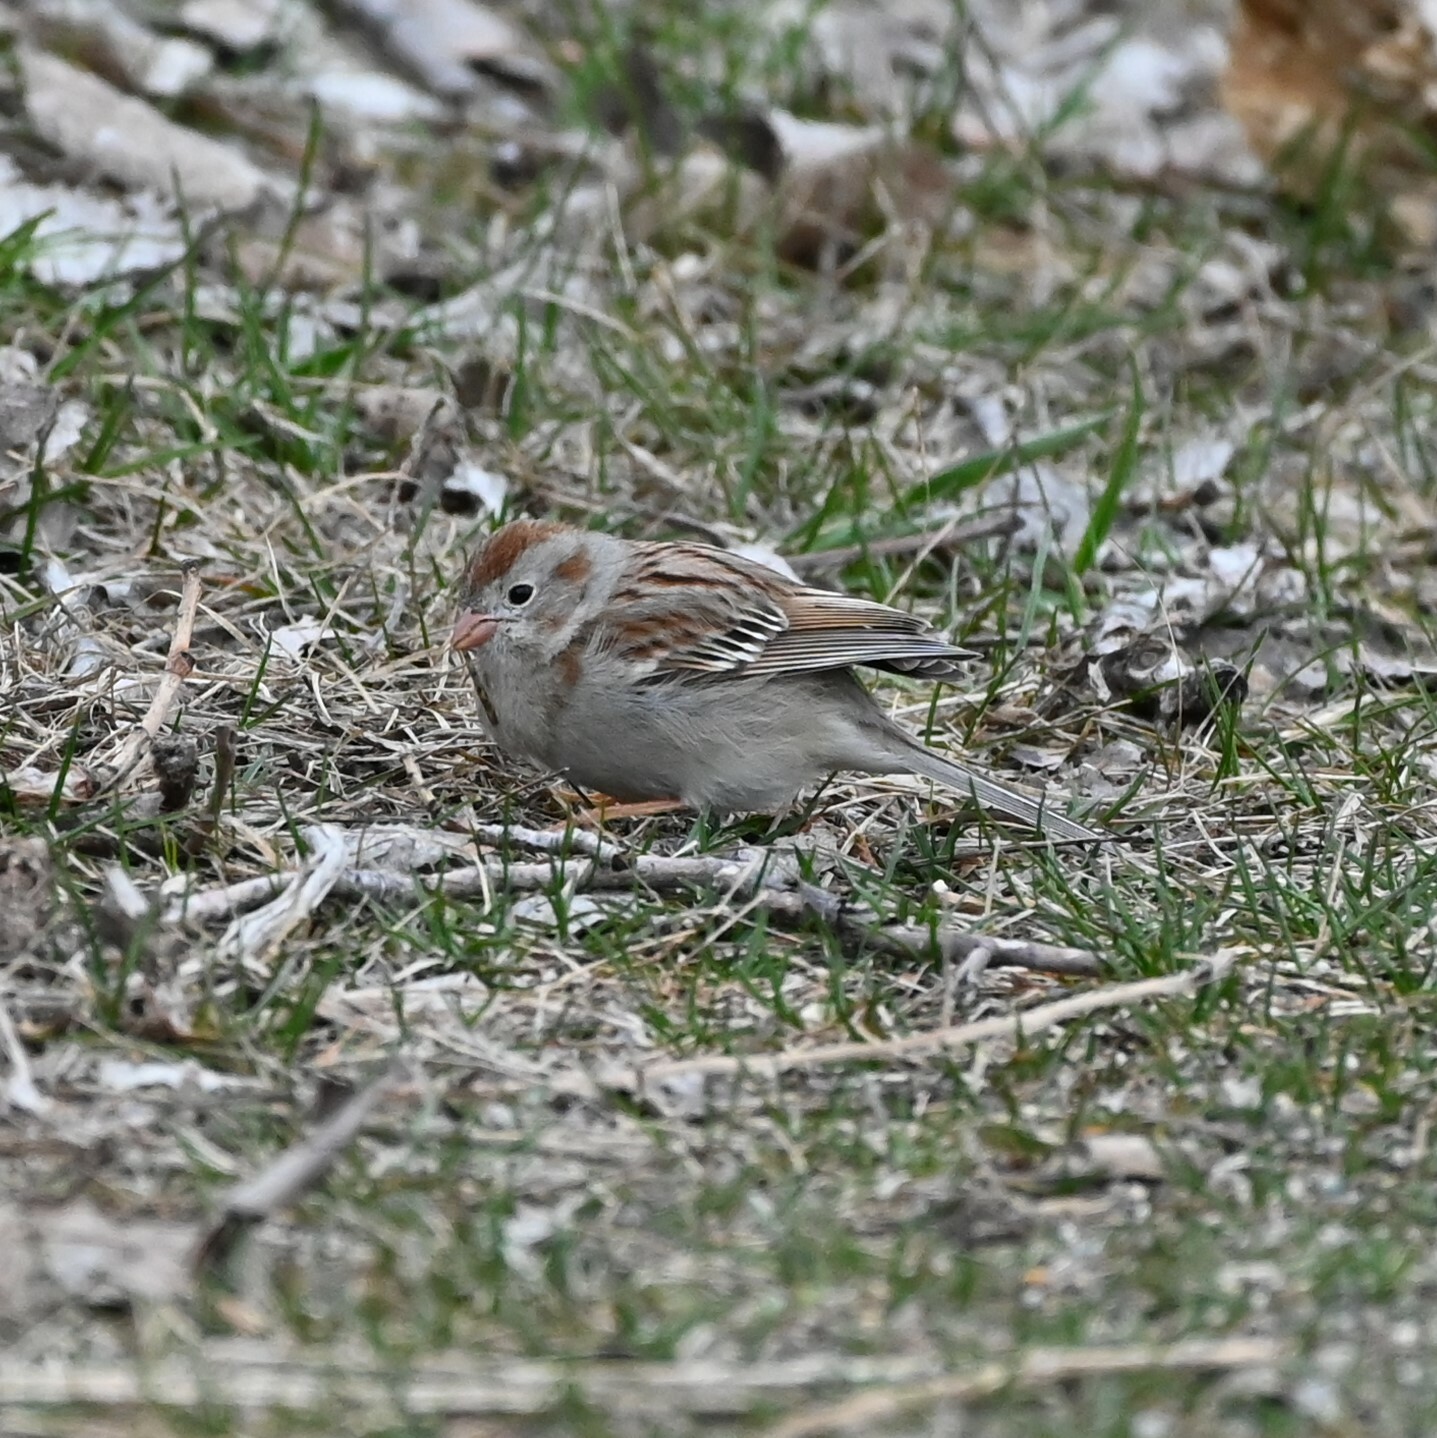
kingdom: Animalia
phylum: Chordata
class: Aves
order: Passeriformes
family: Passerellidae
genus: Spizella
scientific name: Spizella pusilla
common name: Field sparrow
